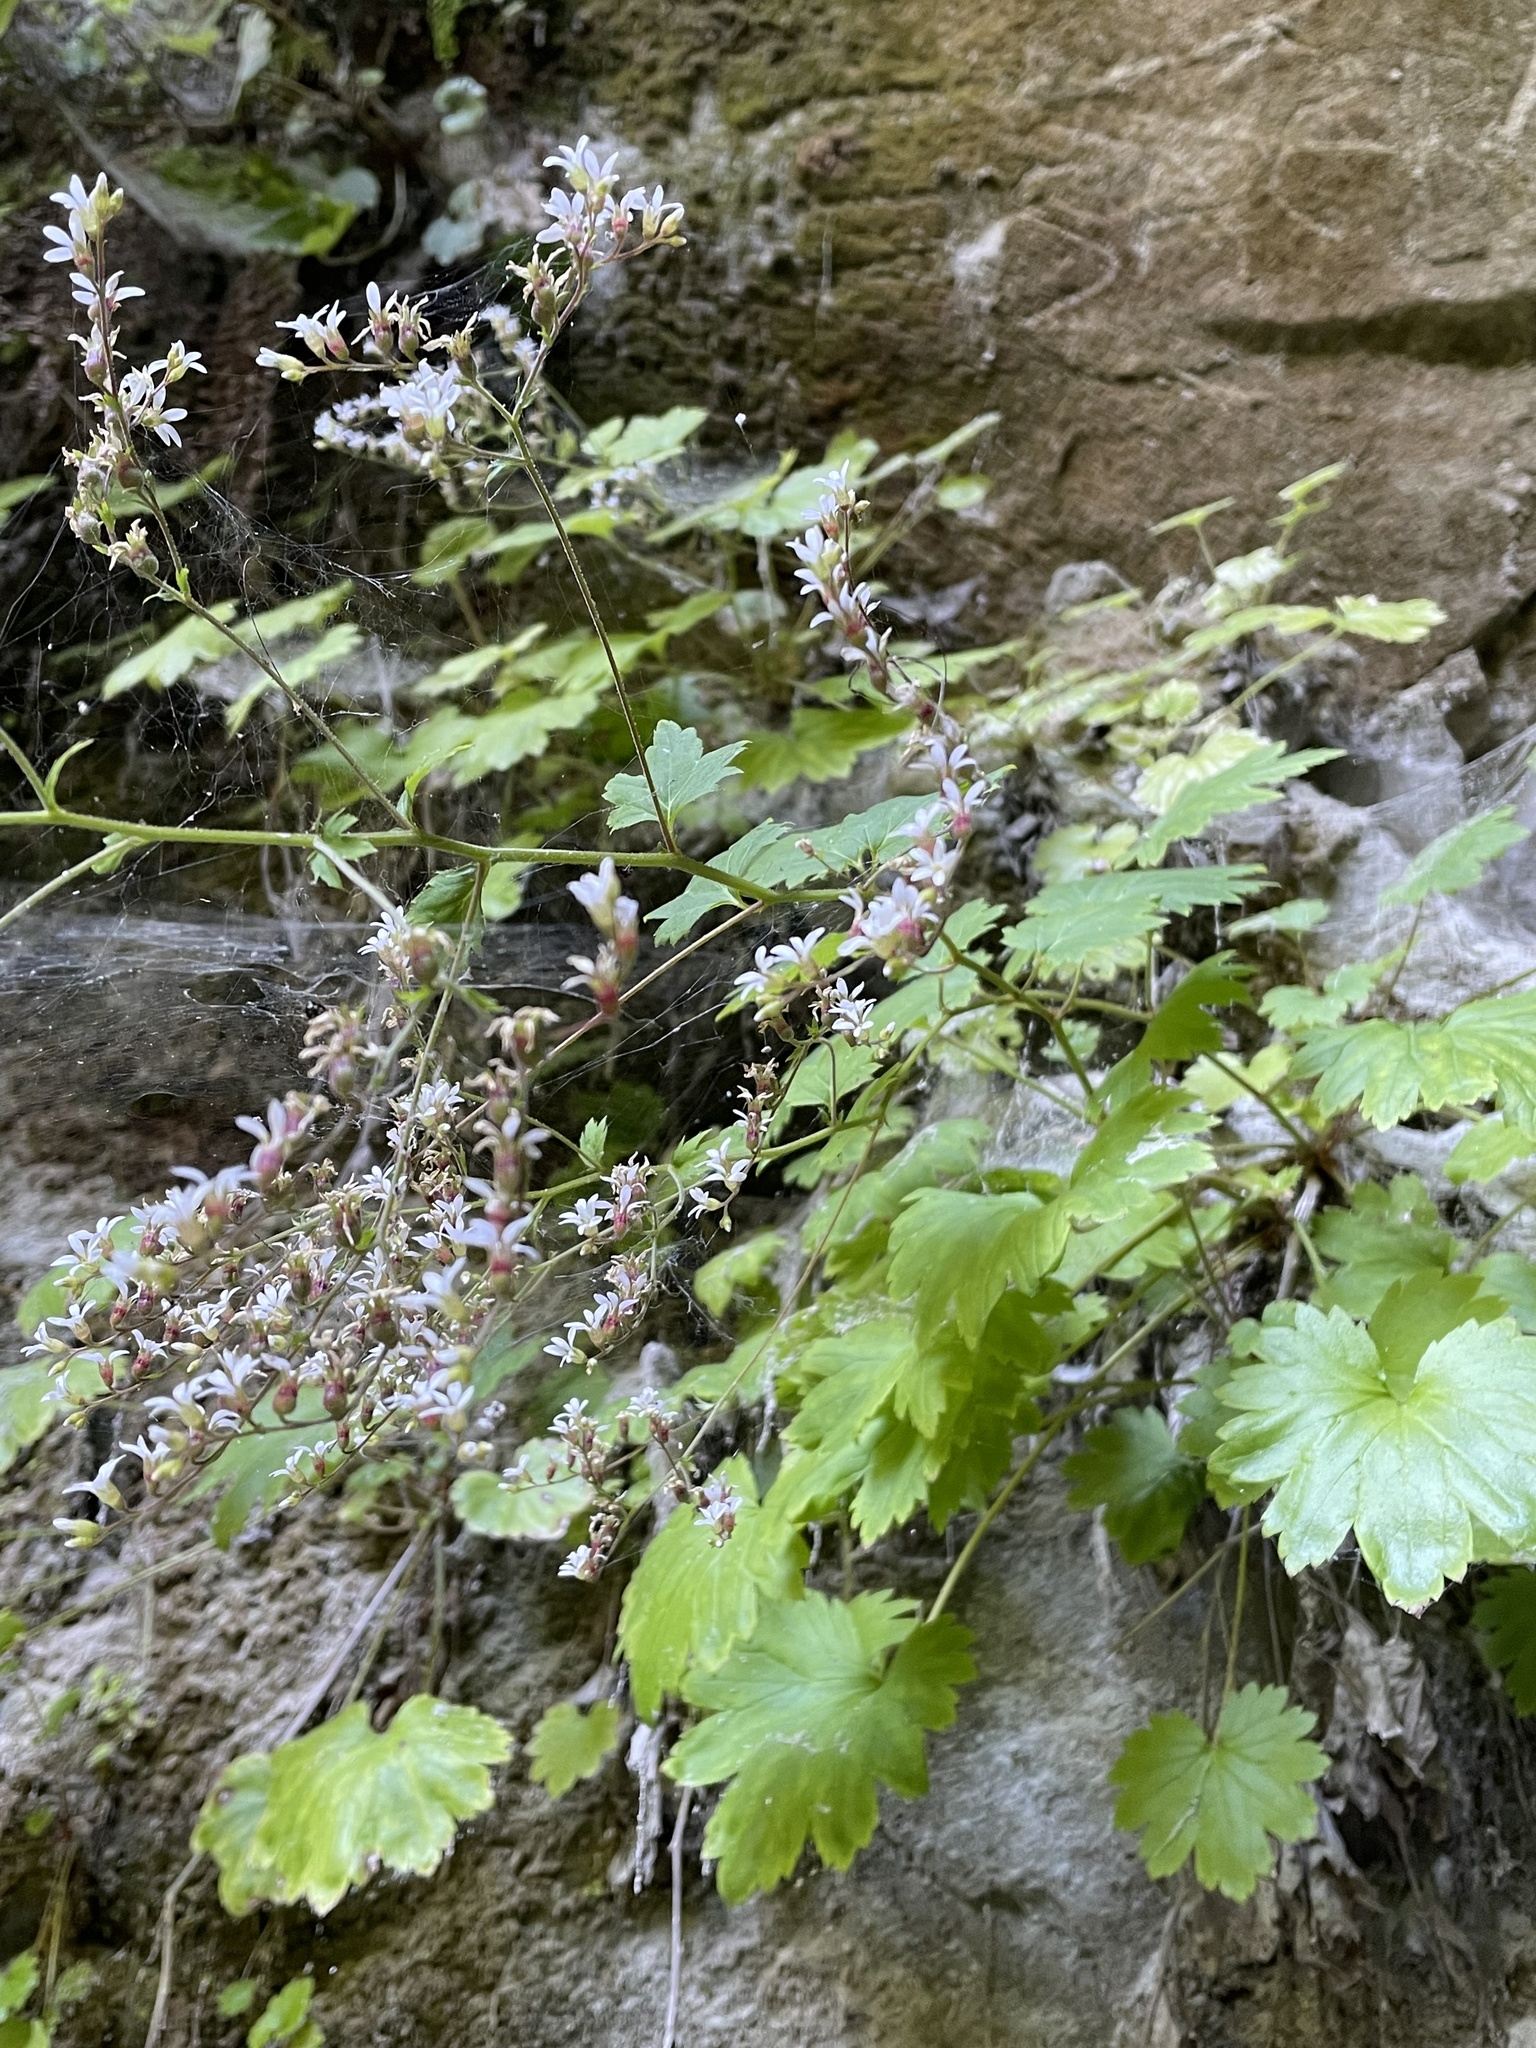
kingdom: Plantae
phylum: Tracheophyta
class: Magnoliopsida
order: Saxifragales
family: Saxifragaceae
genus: Boykinia
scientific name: Boykinia occidentalis
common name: Coast boykinia
